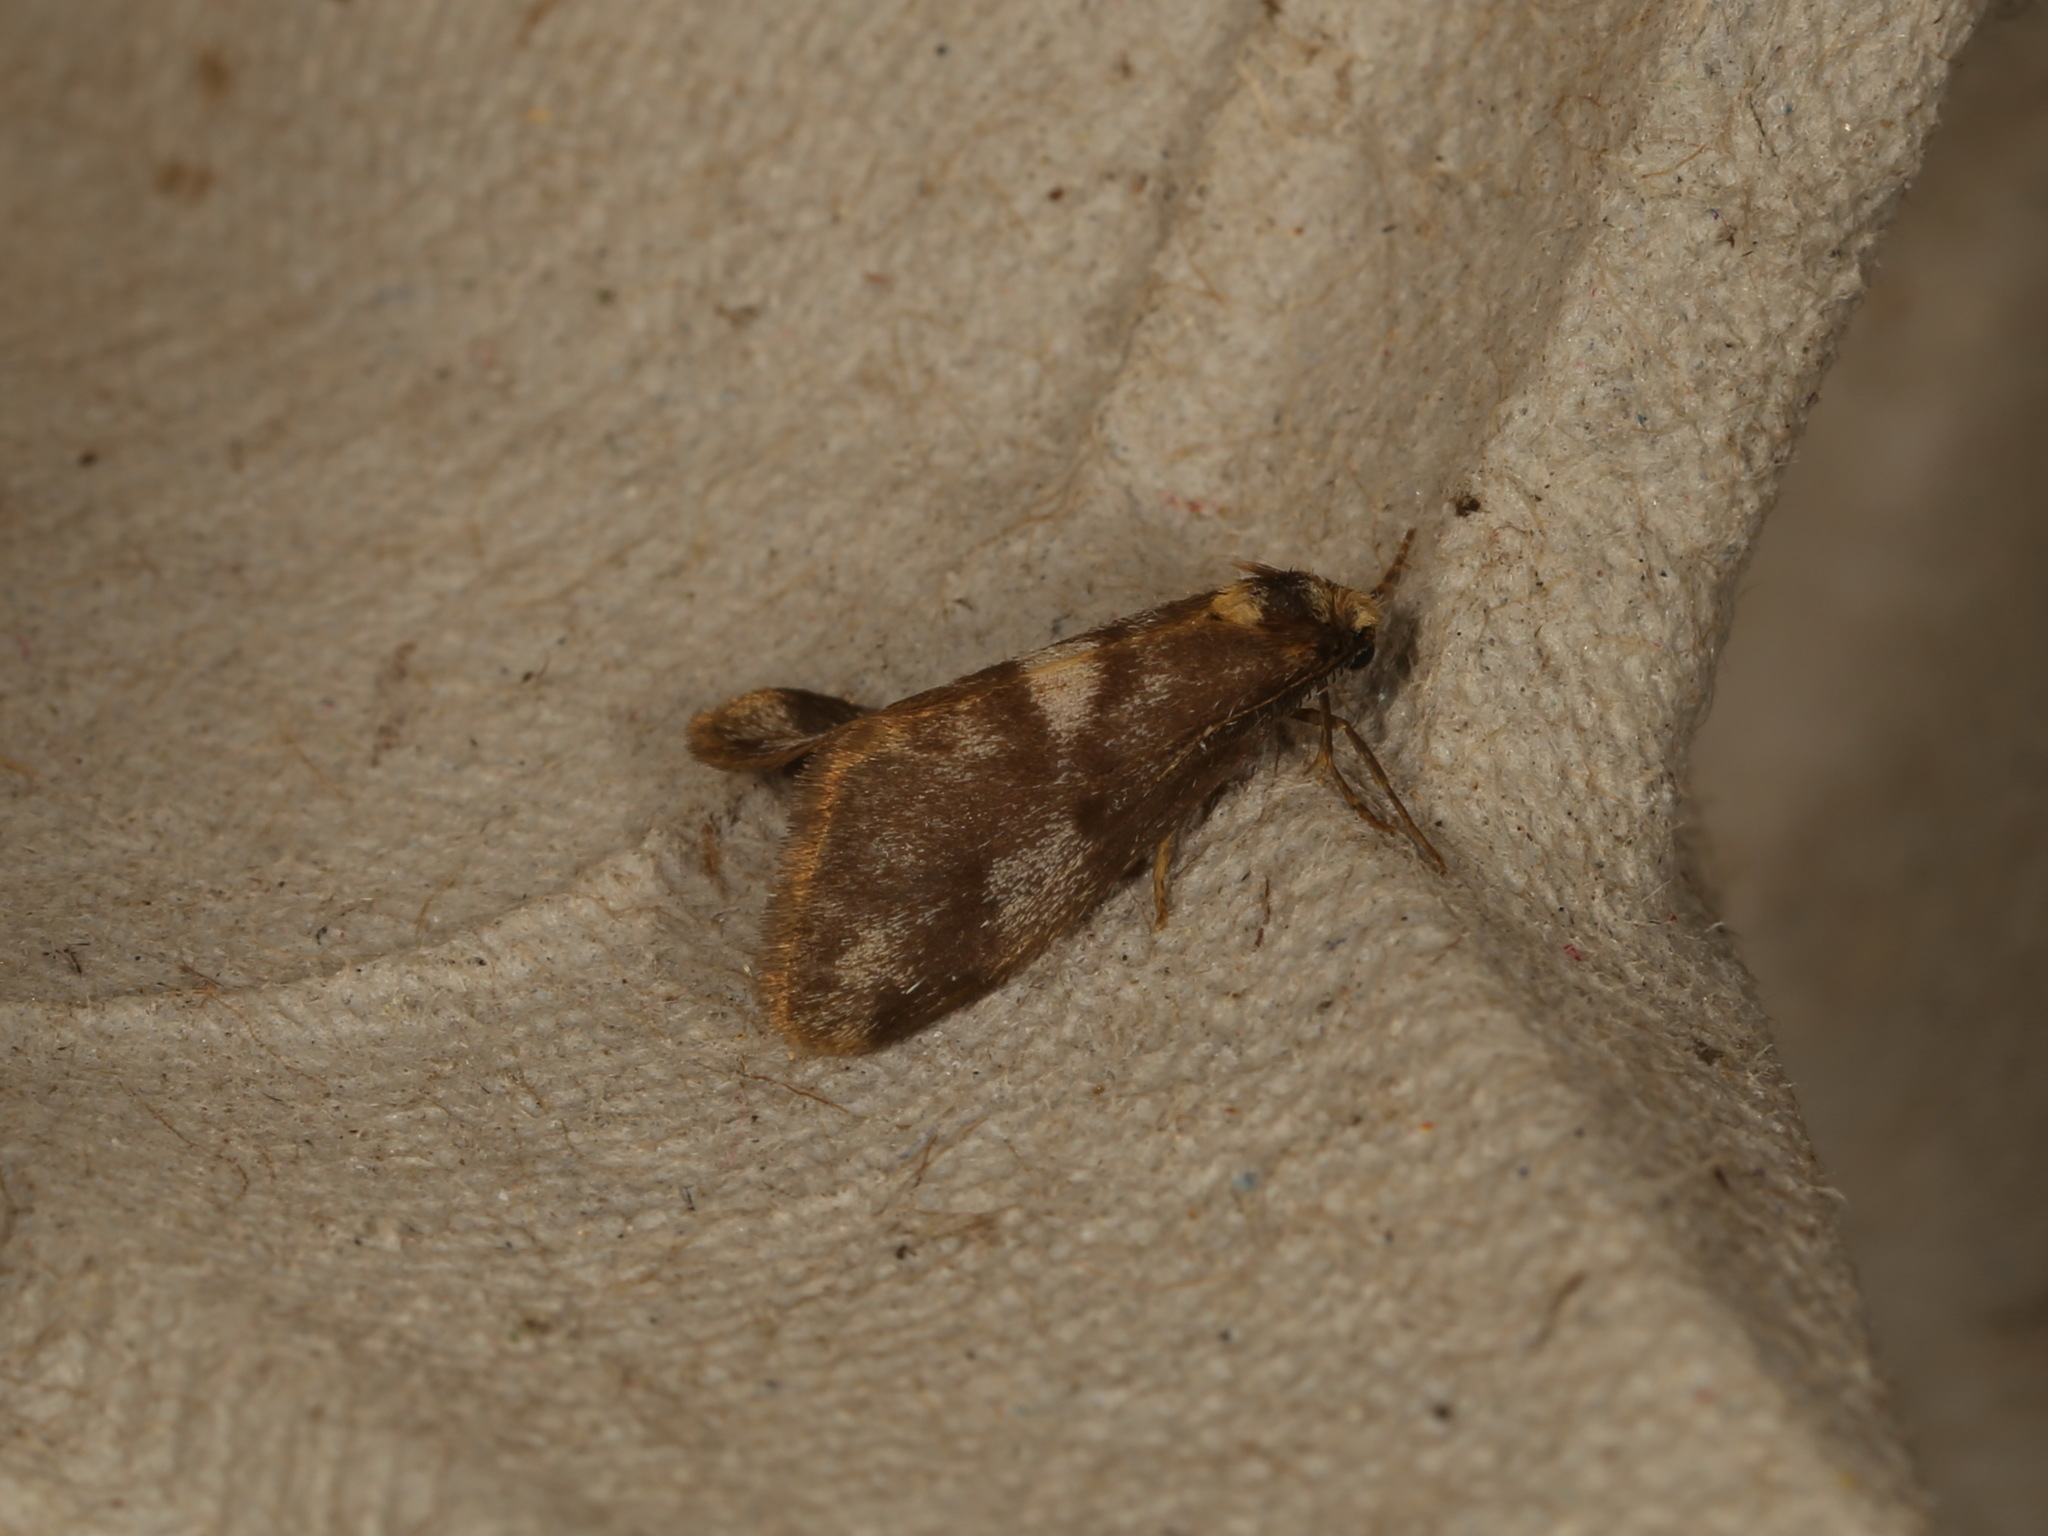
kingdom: Animalia
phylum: Arthropoda
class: Insecta
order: Lepidoptera
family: Erebidae
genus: Anestia
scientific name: Anestia semiochrea
